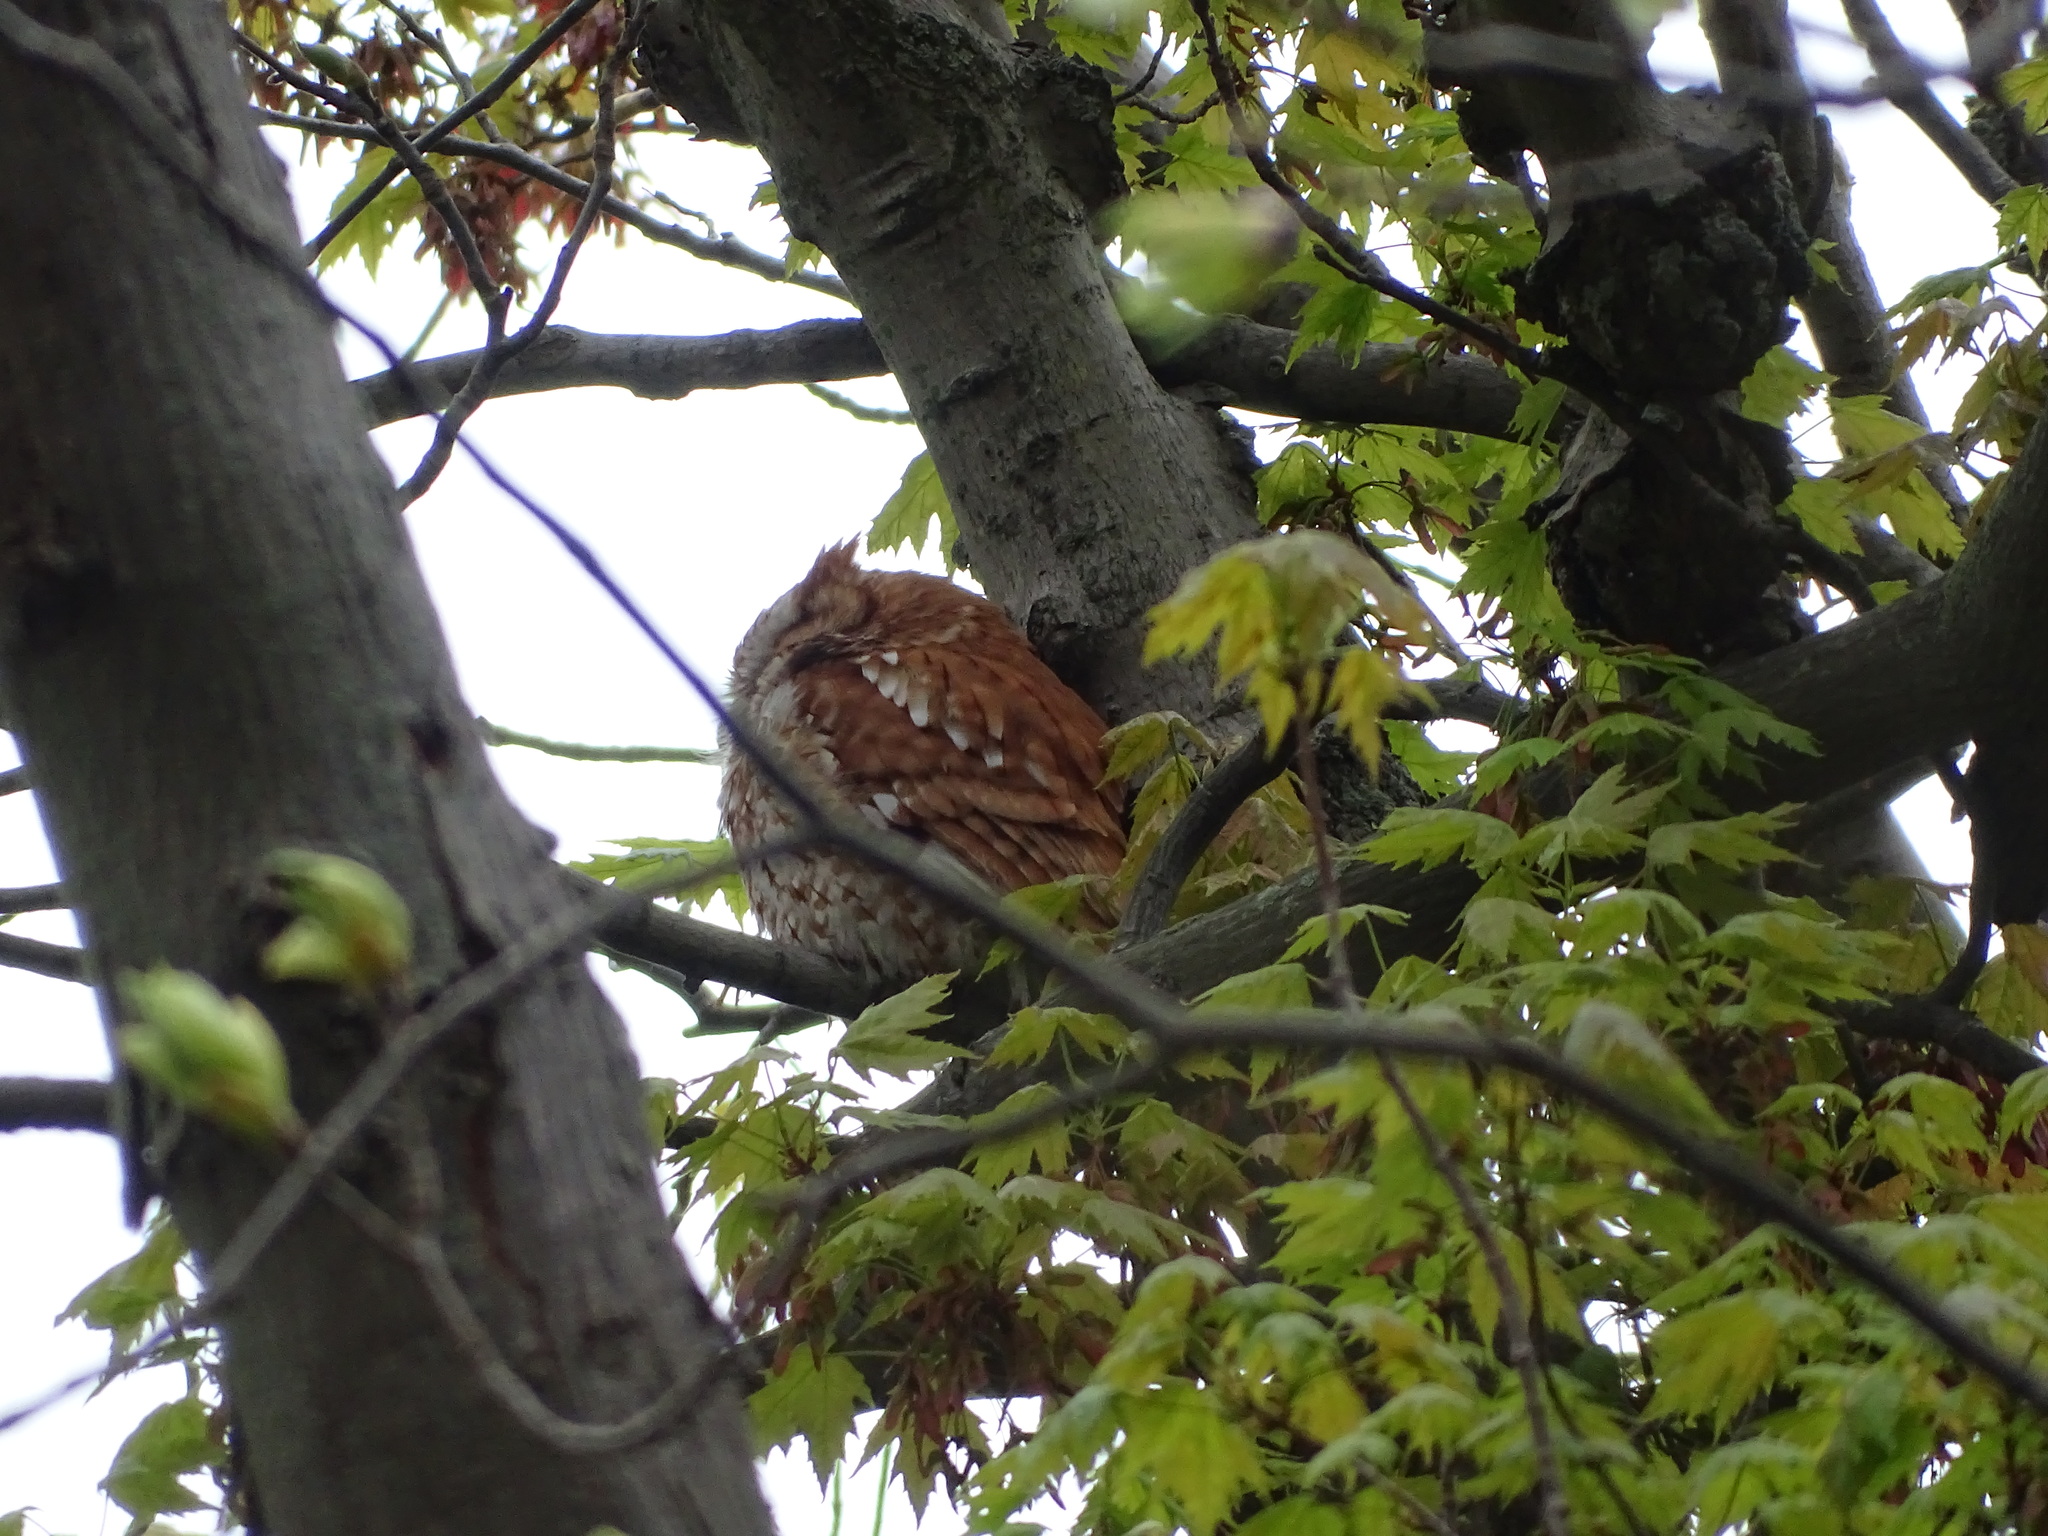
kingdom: Animalia
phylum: Chordata
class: Aves
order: Strigiformes
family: Strigidae
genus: Megascops
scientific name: Megascops asio
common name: Eastern screech-owl
